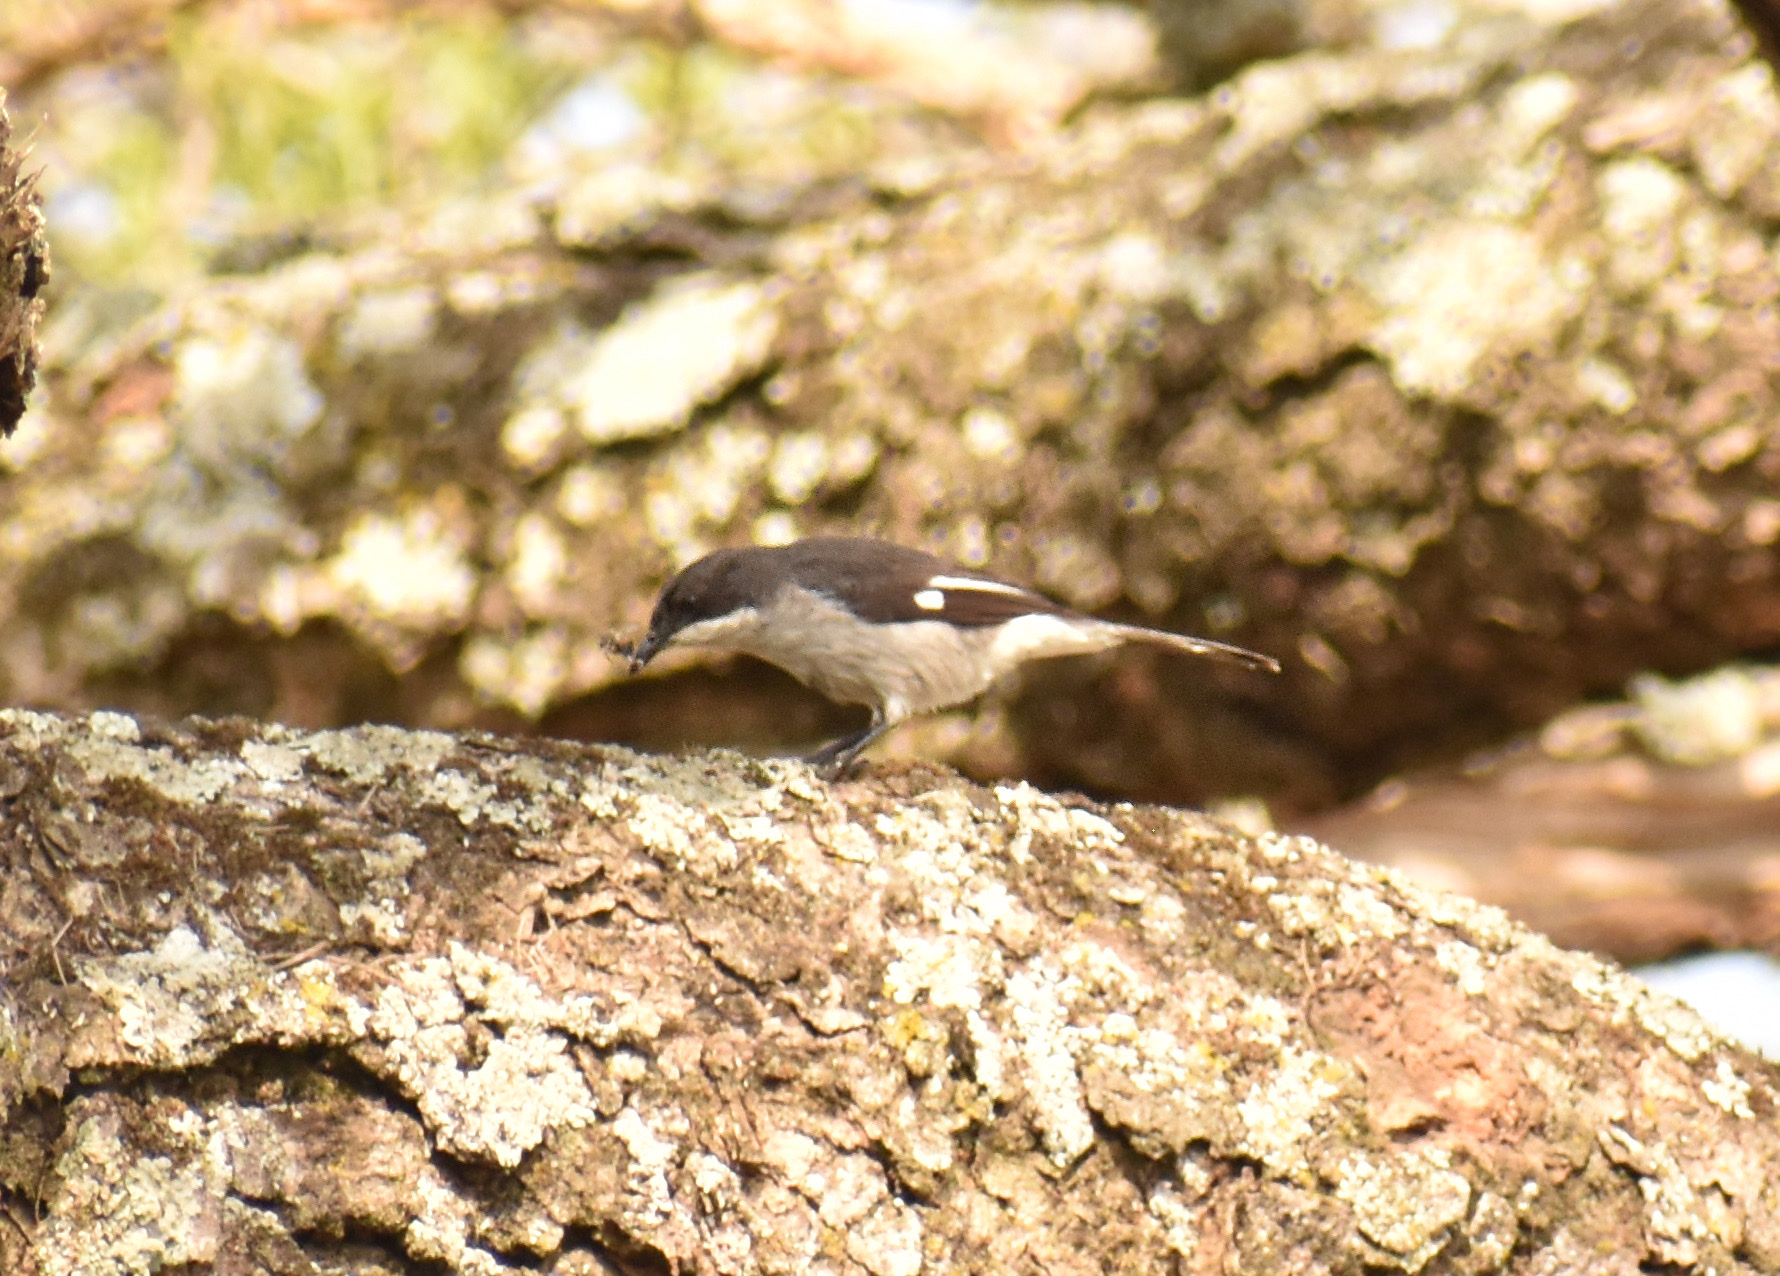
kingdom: Animalia
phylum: Chordata
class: Aves
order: Passeriformes
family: Muscicapidae
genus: Sigelus
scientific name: Sigelus silens
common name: Fiscal flycatcher
